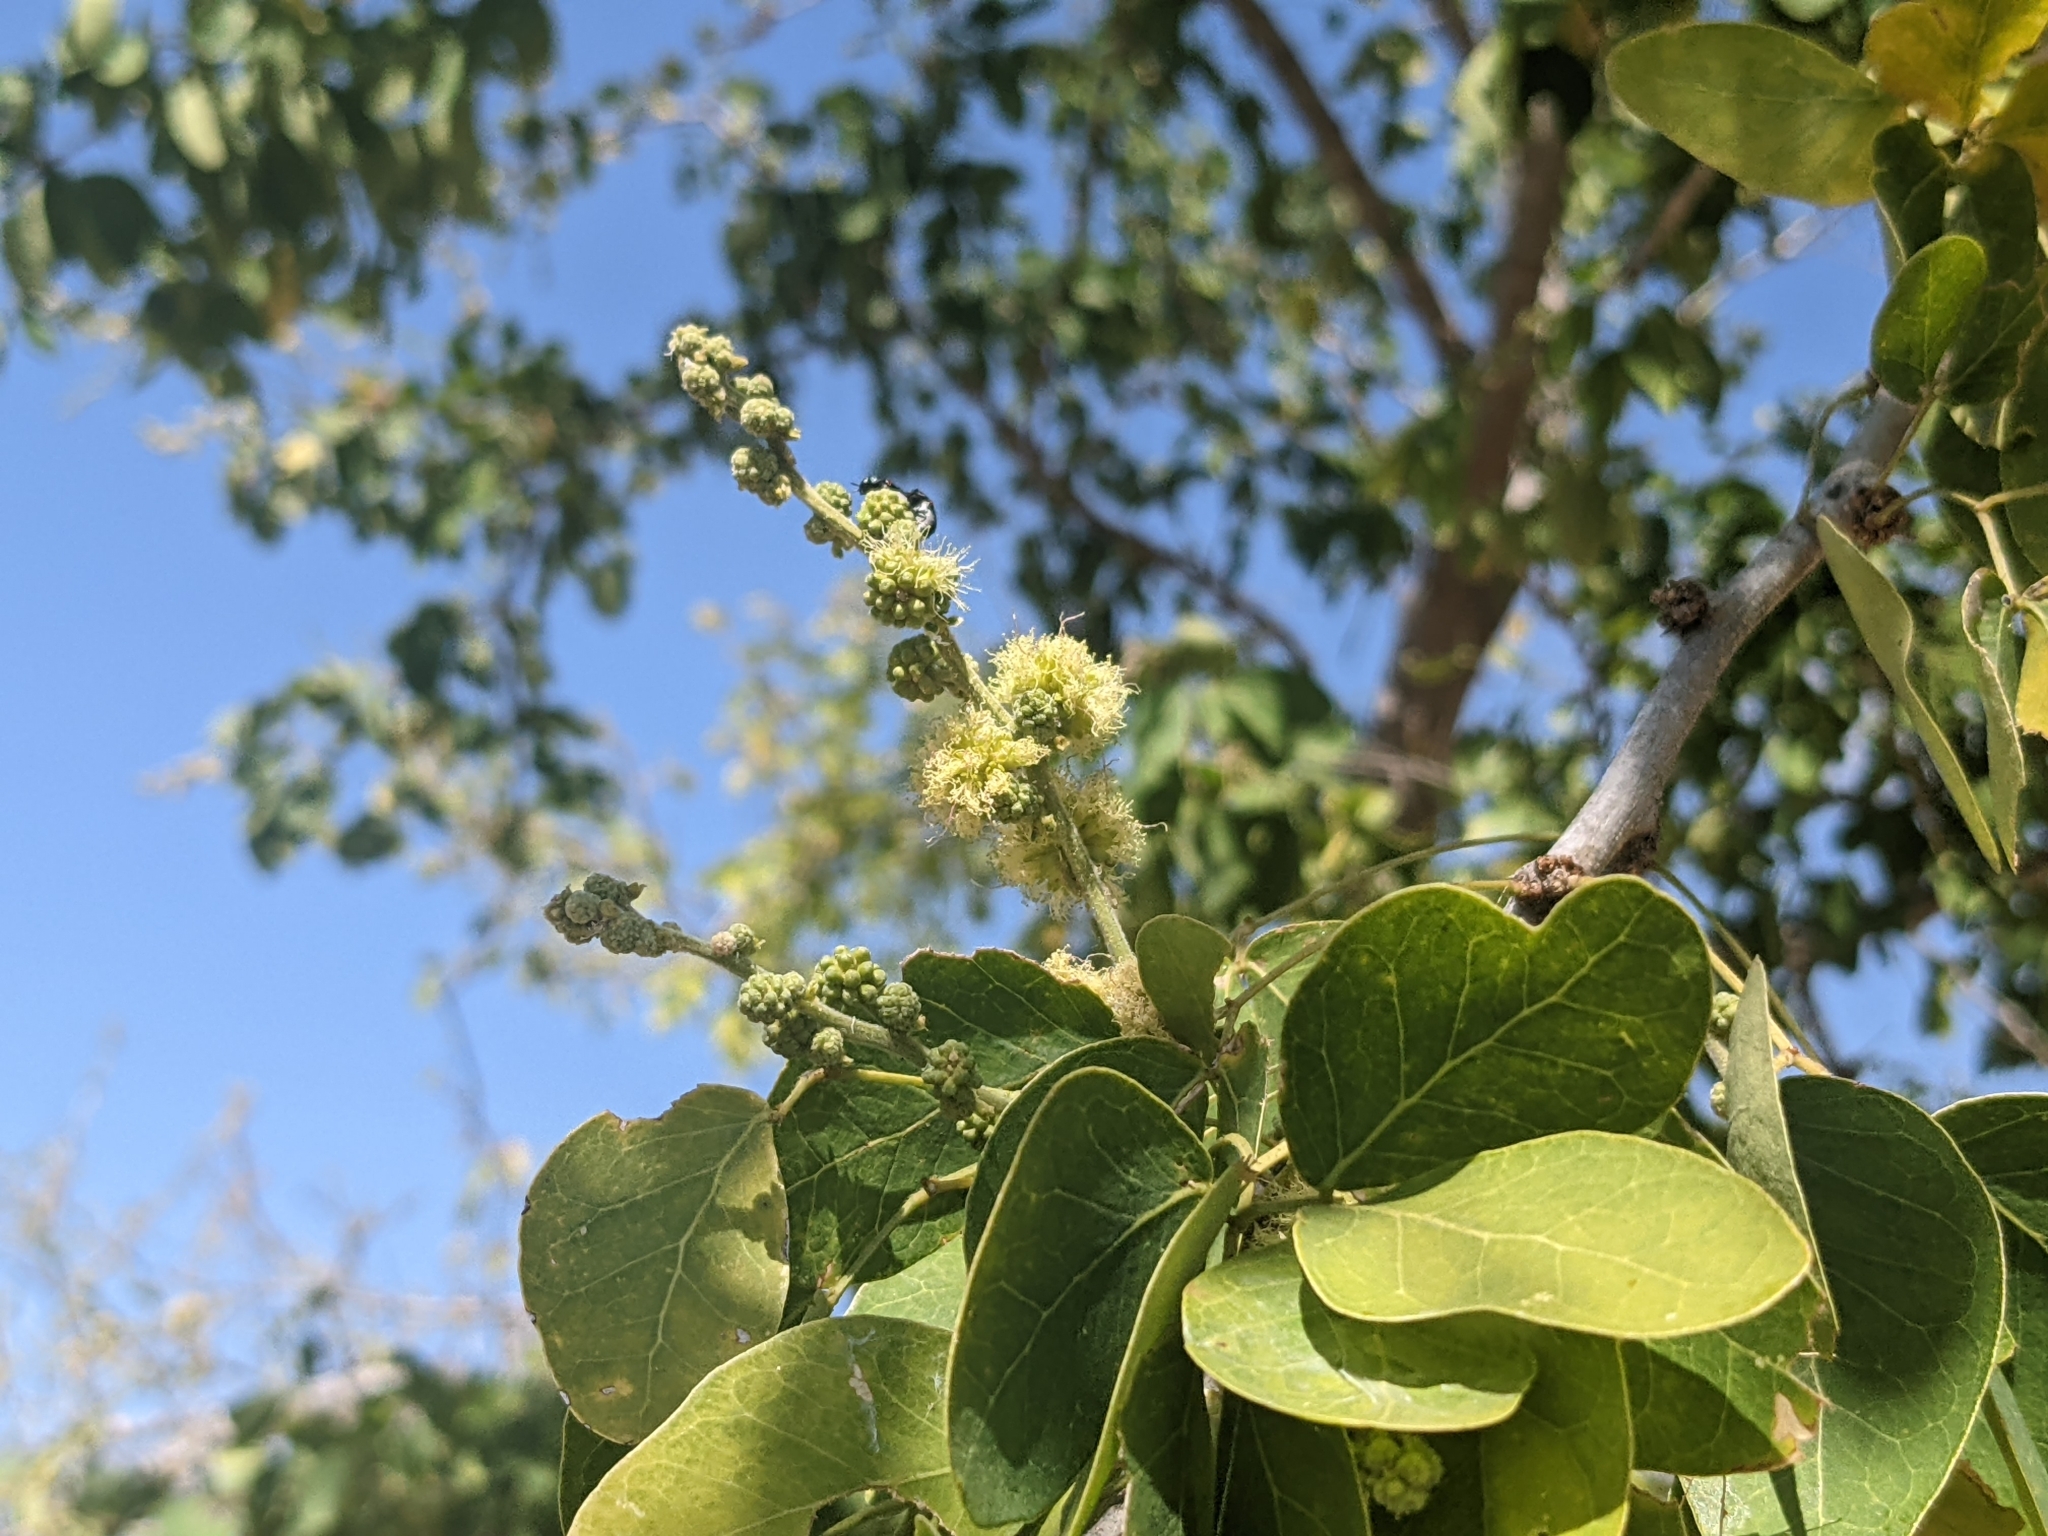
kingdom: Plantae
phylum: Tracheophyta
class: Magnoliopsida
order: Fabales
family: Fabaceae
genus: Pithecellobium
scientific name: Pithecellobium dulce
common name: Monkeypod
